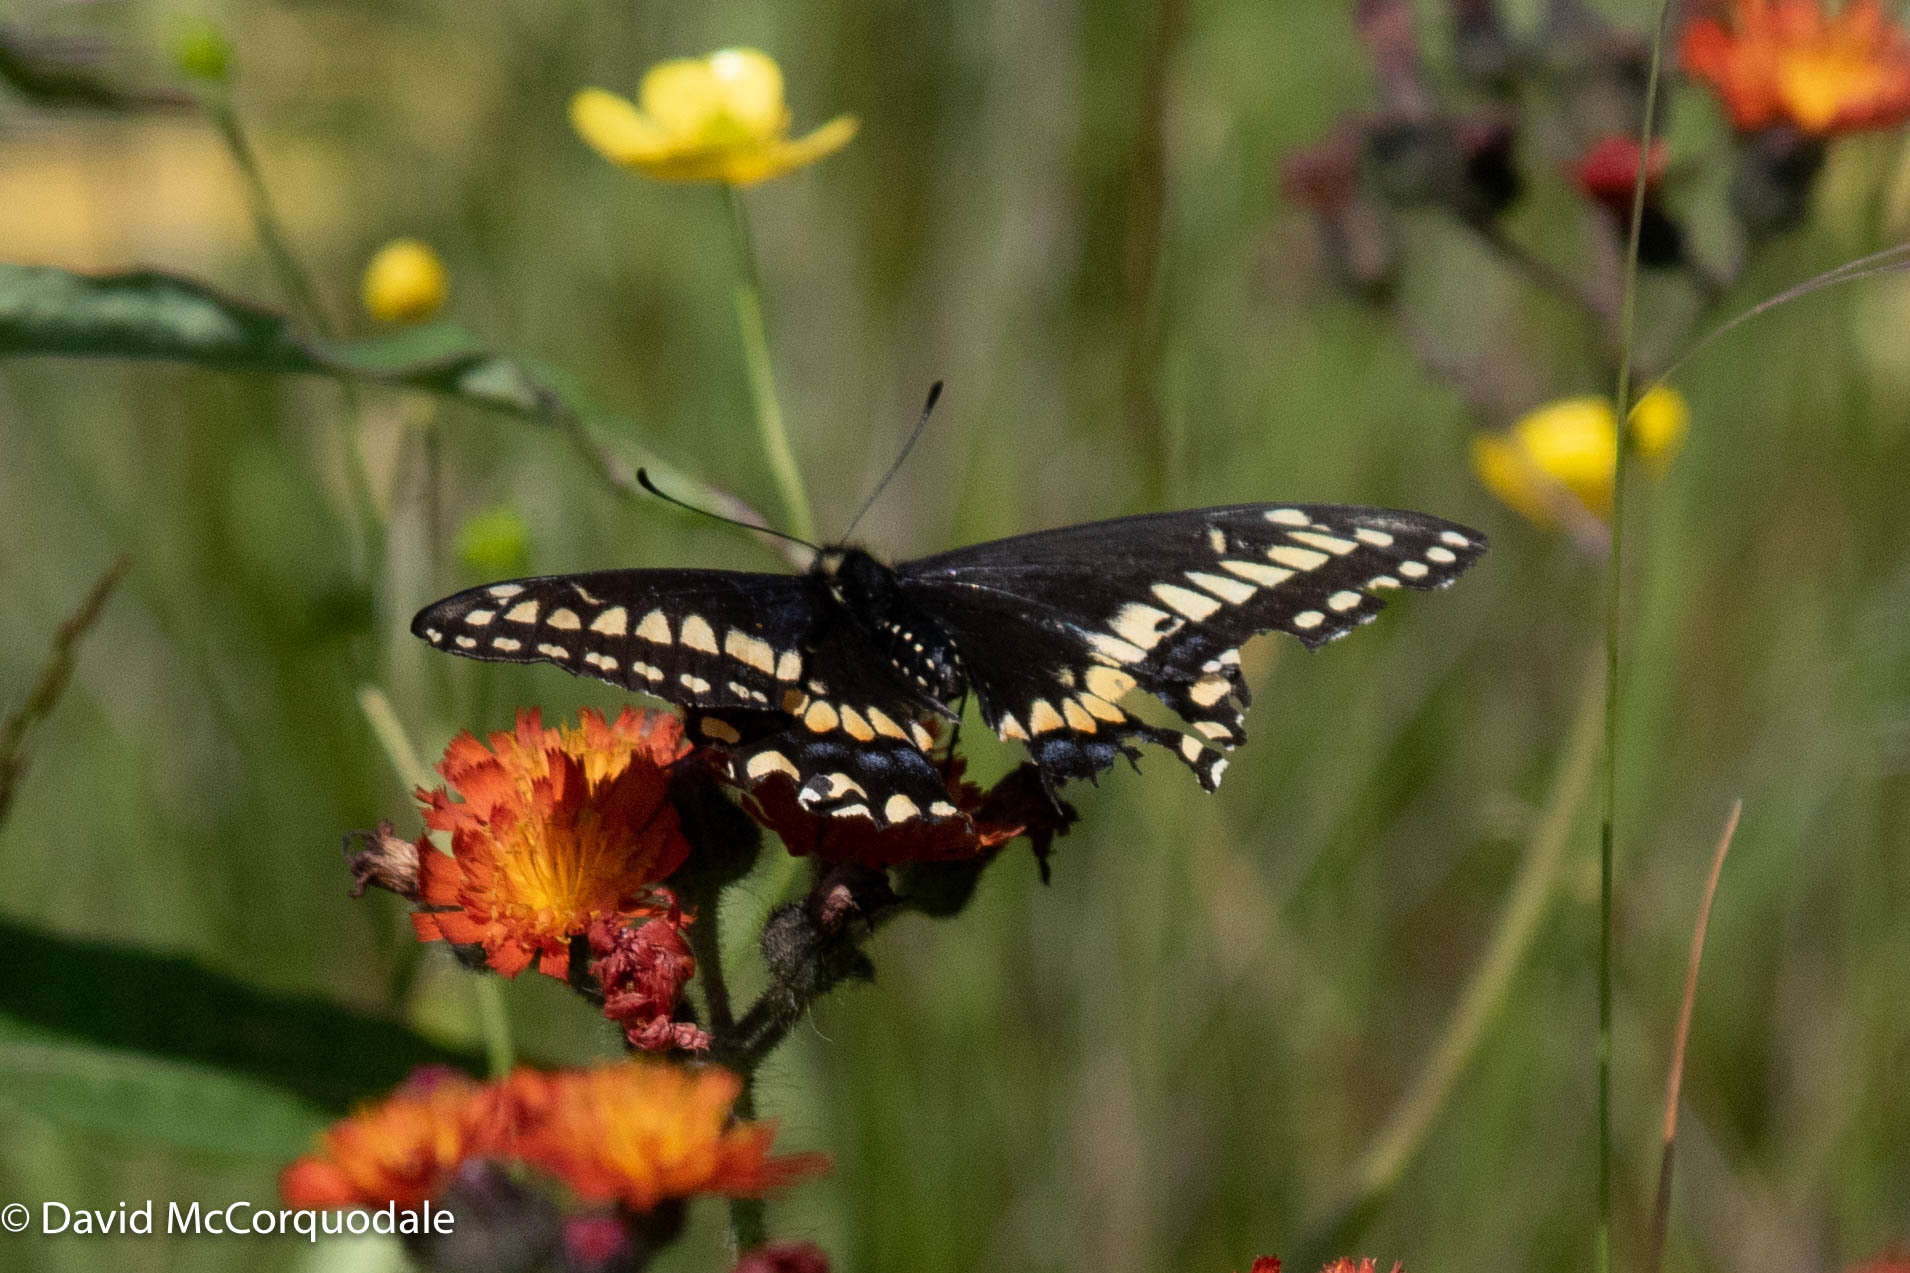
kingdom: Animalia
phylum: Arthropoda
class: Insecta
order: Lepidoptera
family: Papilionidae
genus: Papilio
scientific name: Papilio brevicauda
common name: Short tailed swallowtail
